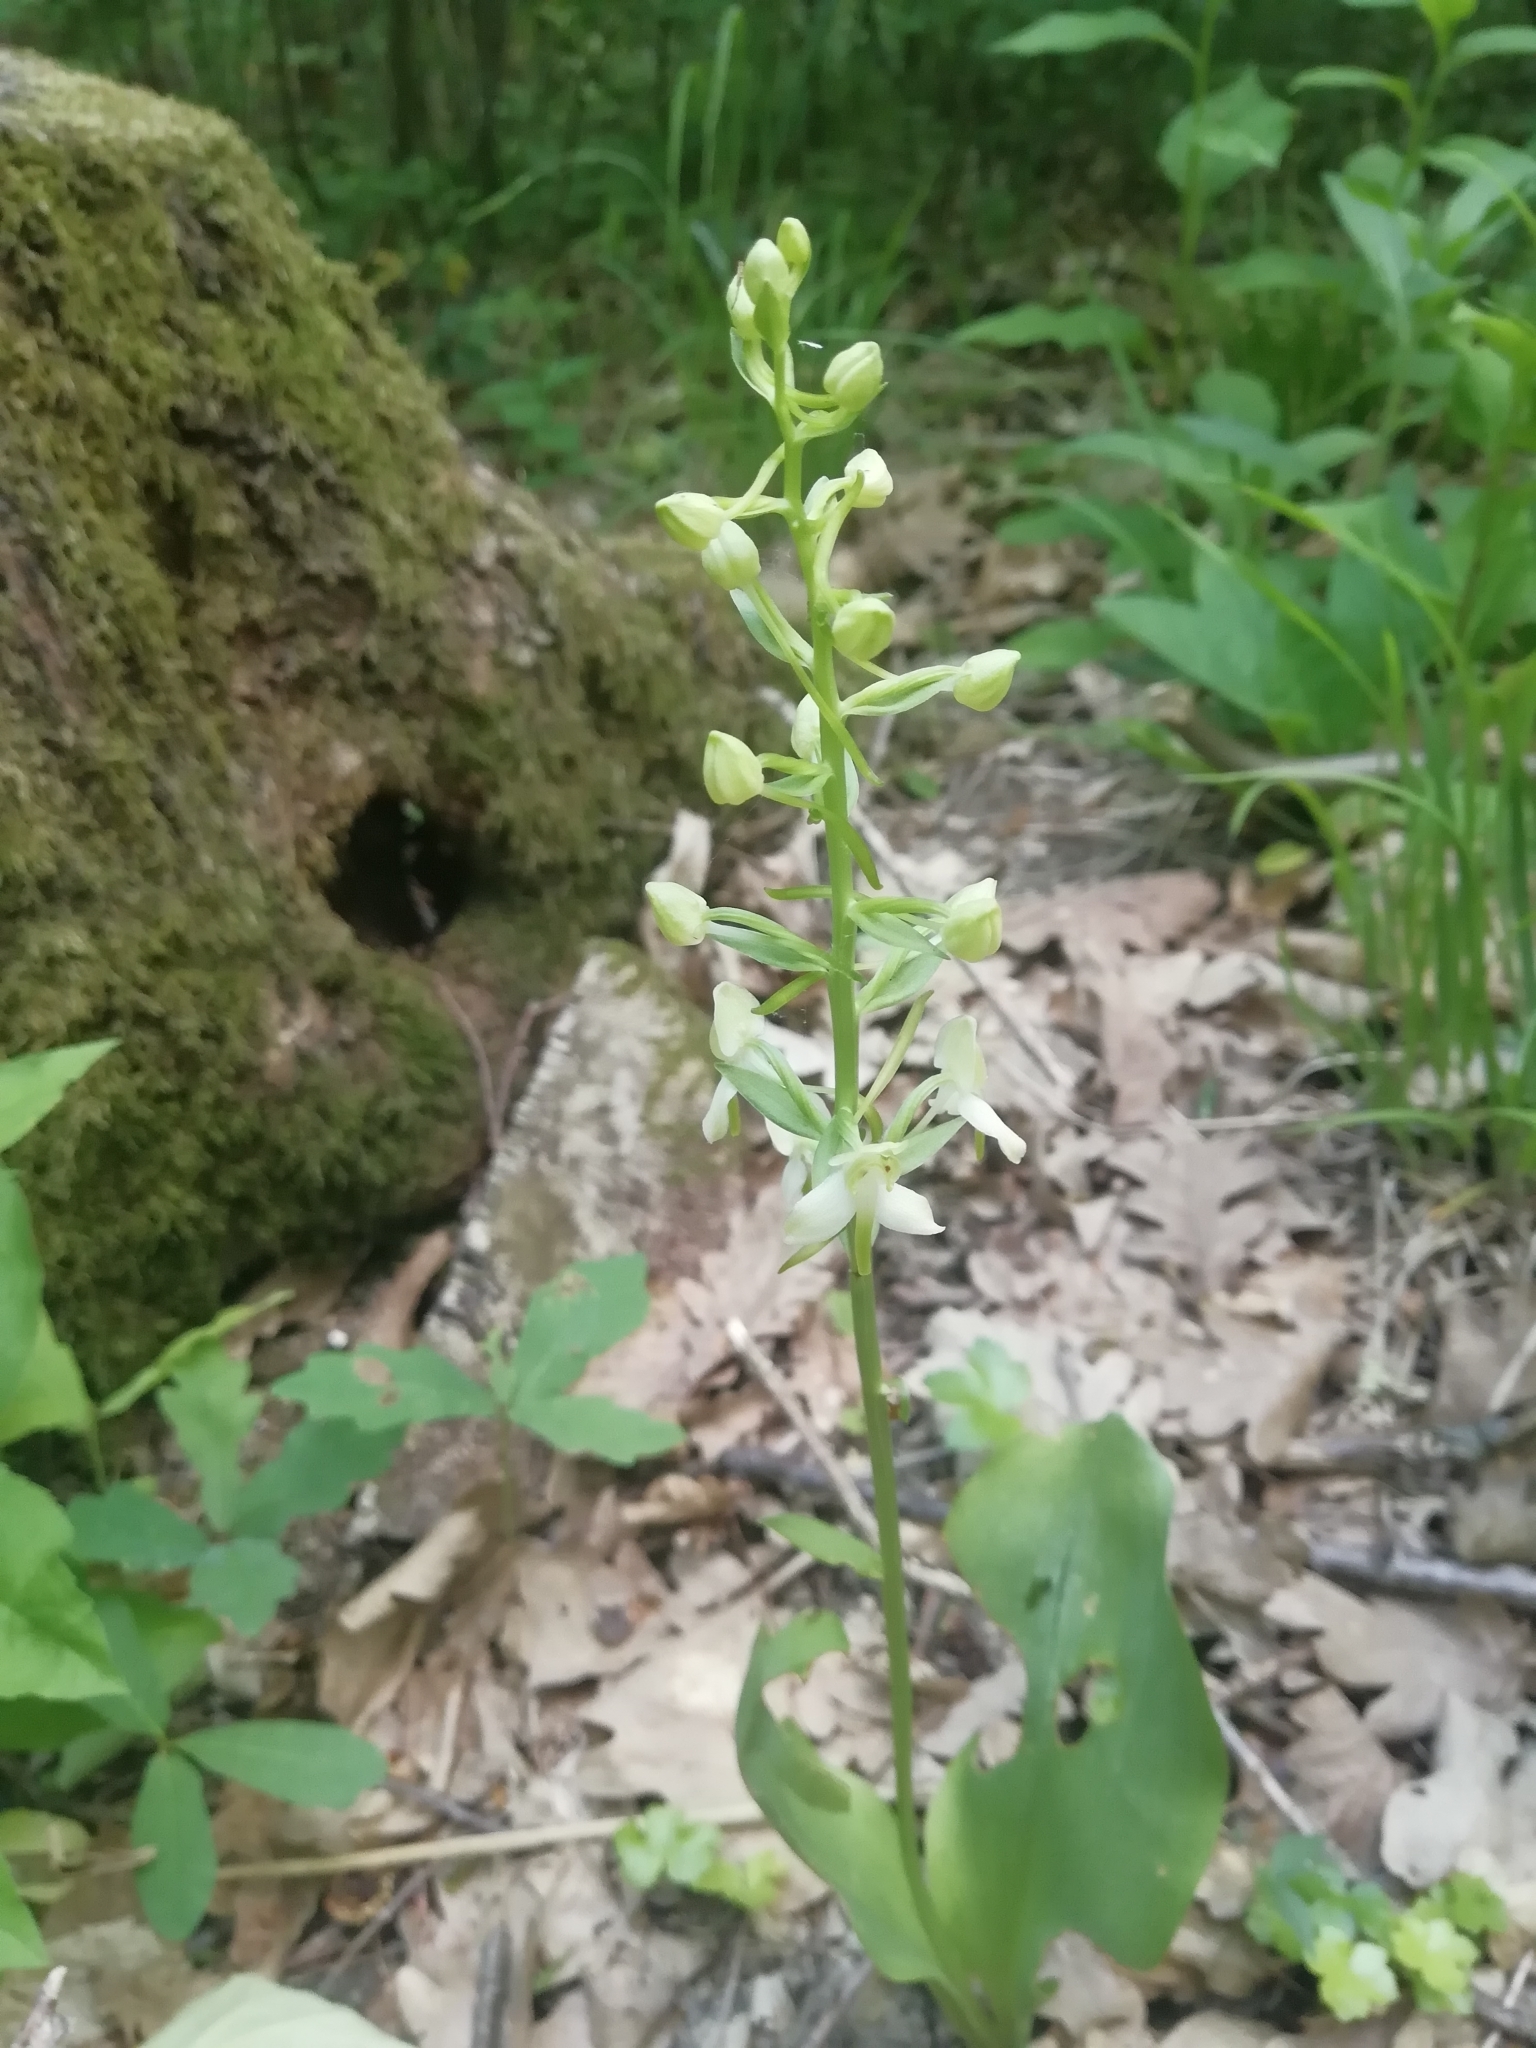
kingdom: Plantae
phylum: Tracheophyta
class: Liliopsida
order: Asparagales
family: Orchidaceae
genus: Platanthera
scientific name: Platanthera chlorantha
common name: Greater butterfly-orchid
